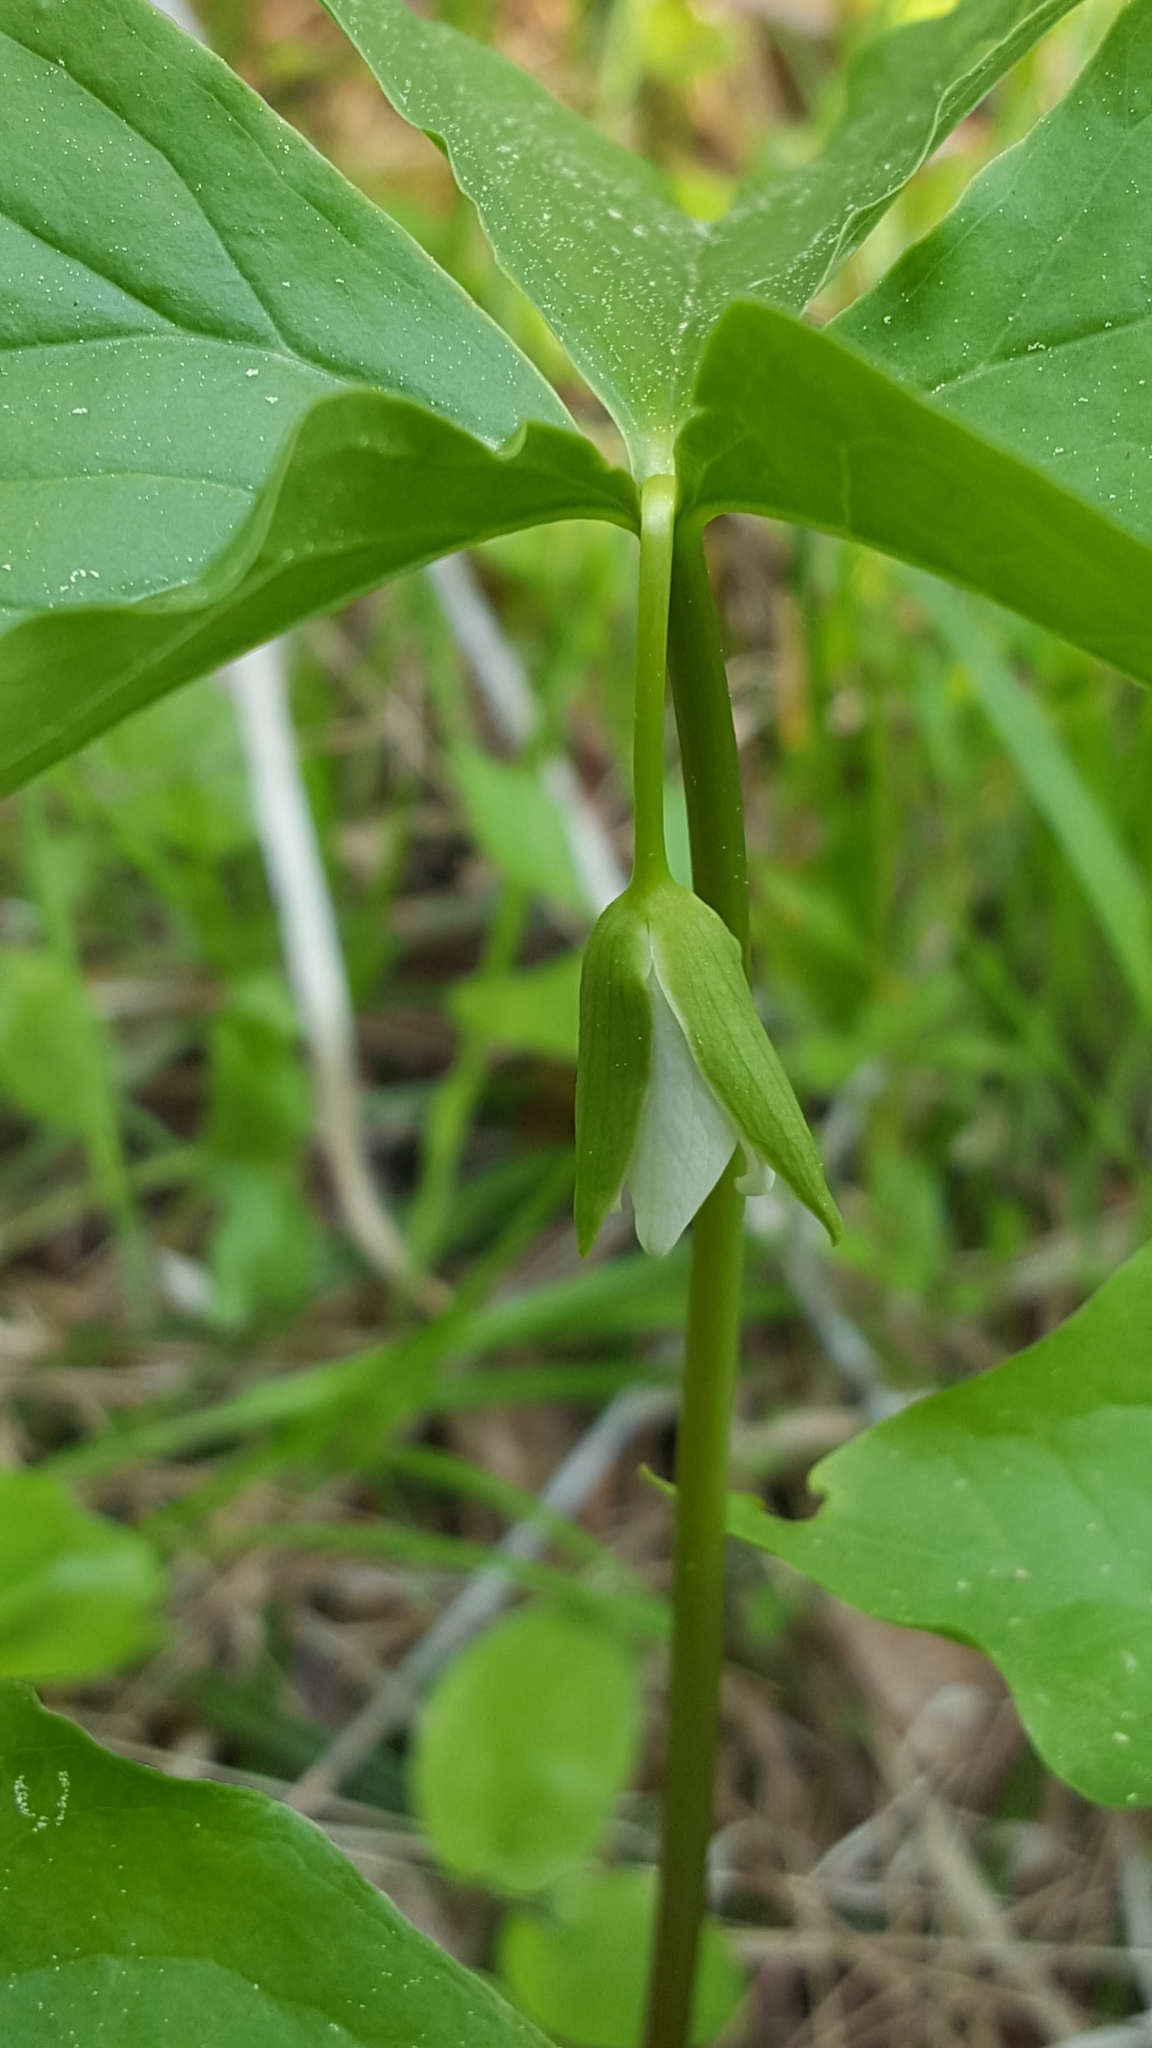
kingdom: Plantae
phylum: Tracheophyta
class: Liliopsida
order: Liliales
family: Melanthiaceae
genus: Trillium
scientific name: Trillium cernuum
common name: Nodding trillium
